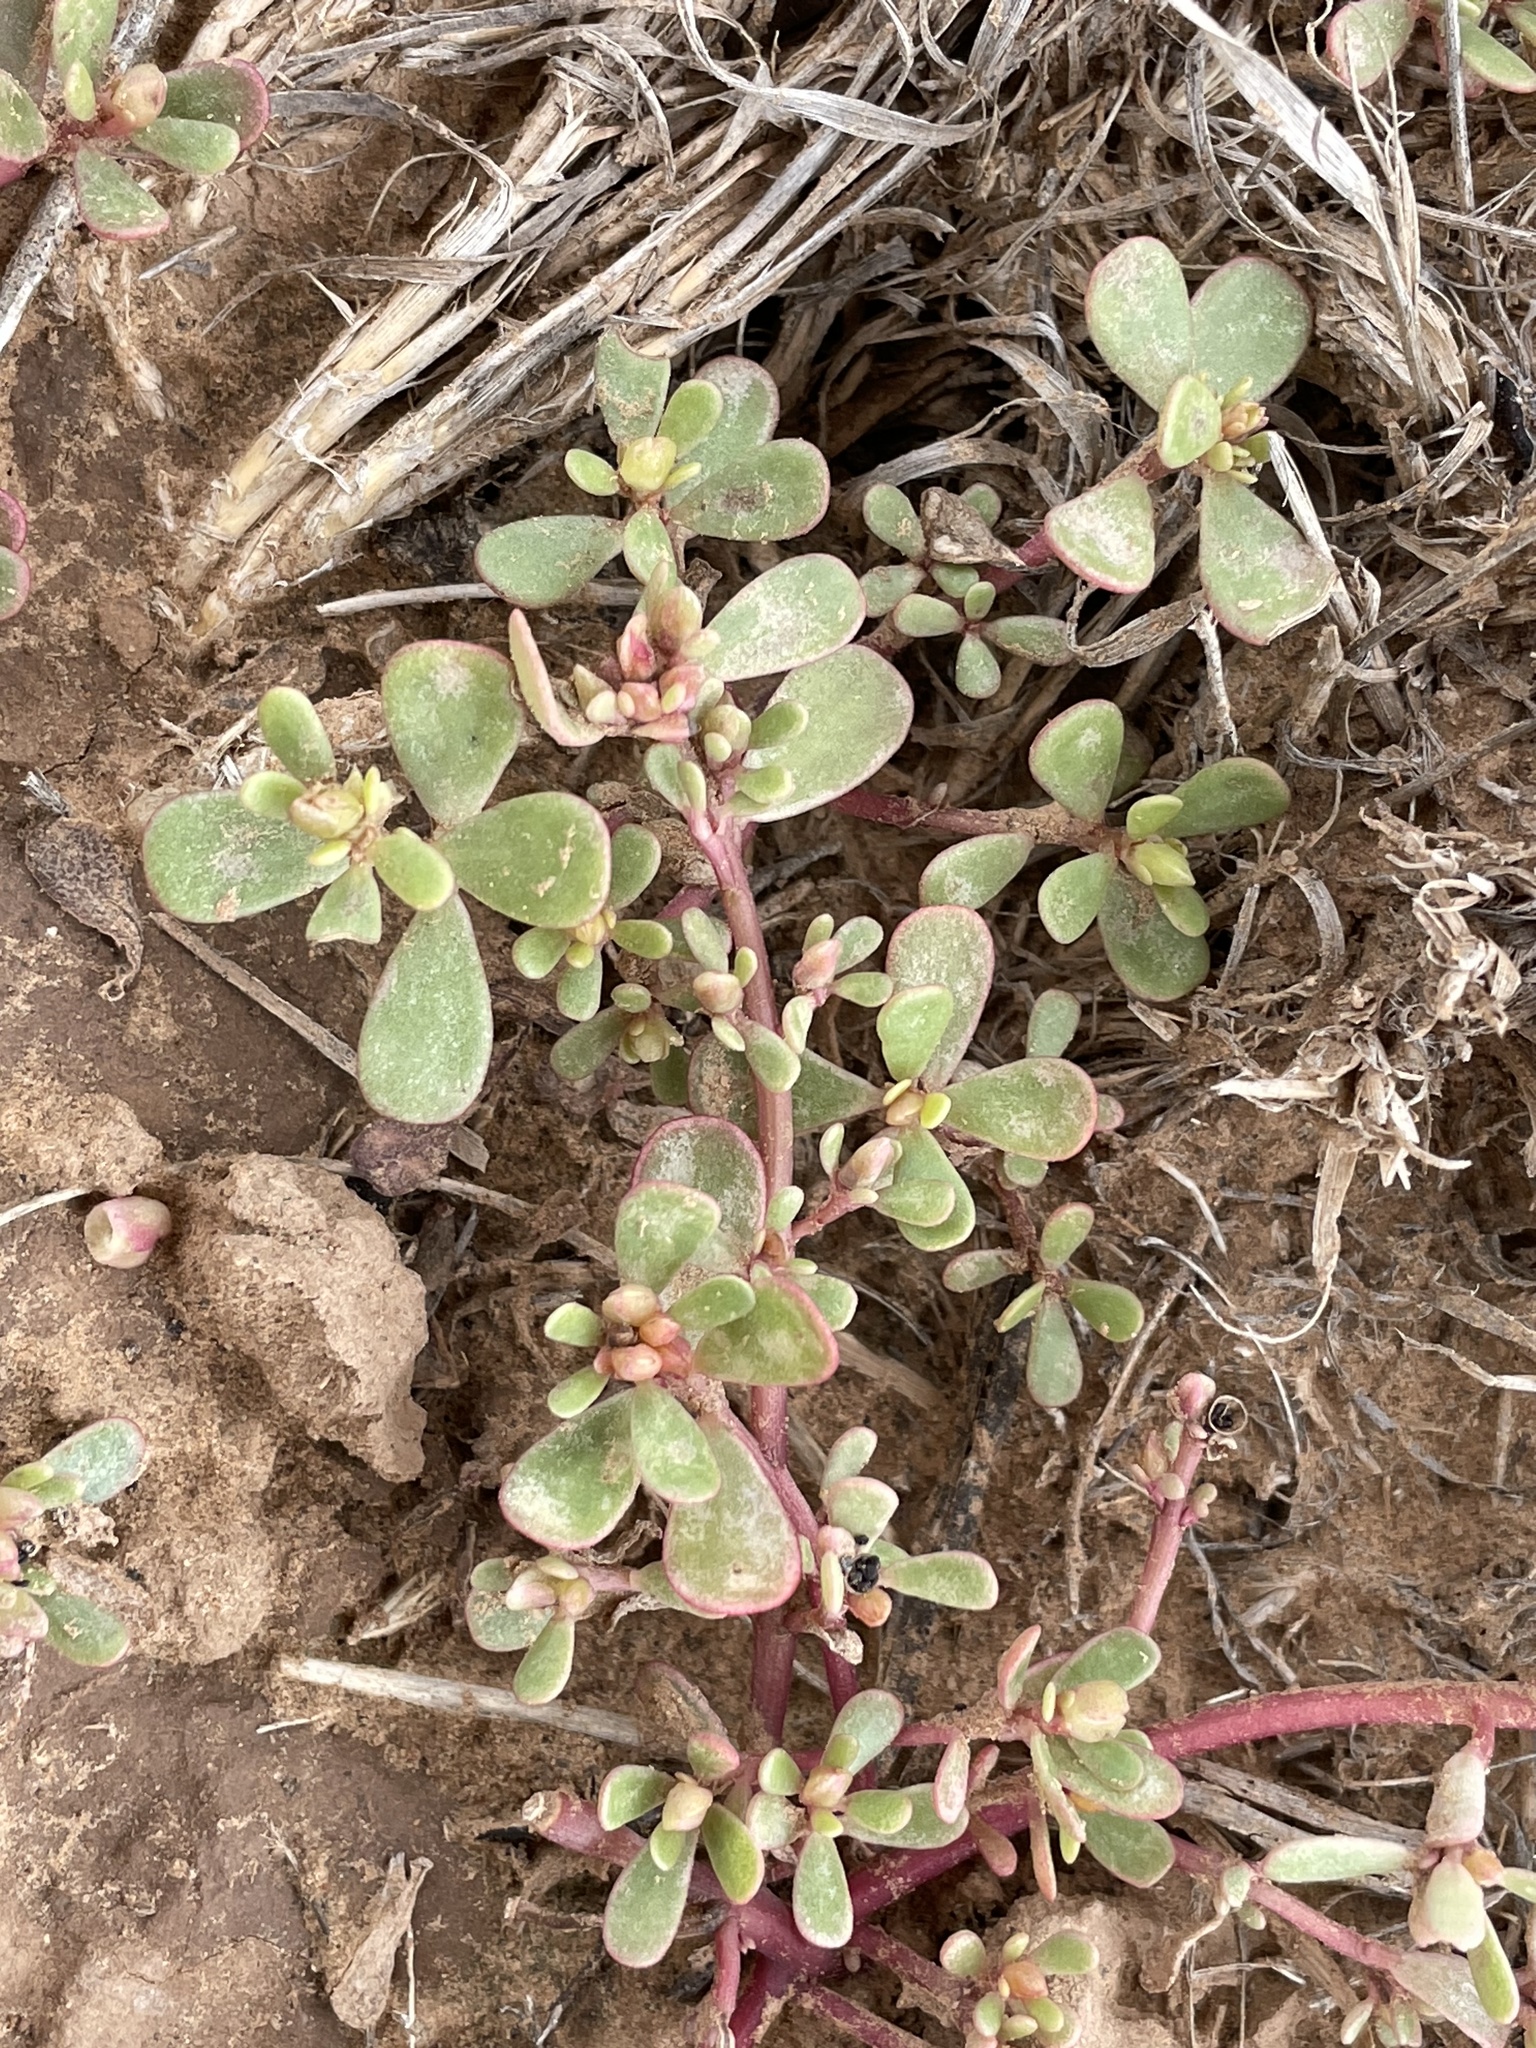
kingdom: Plantae
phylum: Tracheophyta
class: Magnoliopsida
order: Caryophyllales
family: Portulacaceae
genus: Portulaca
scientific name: Portulaca oleracea
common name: Common purslane
